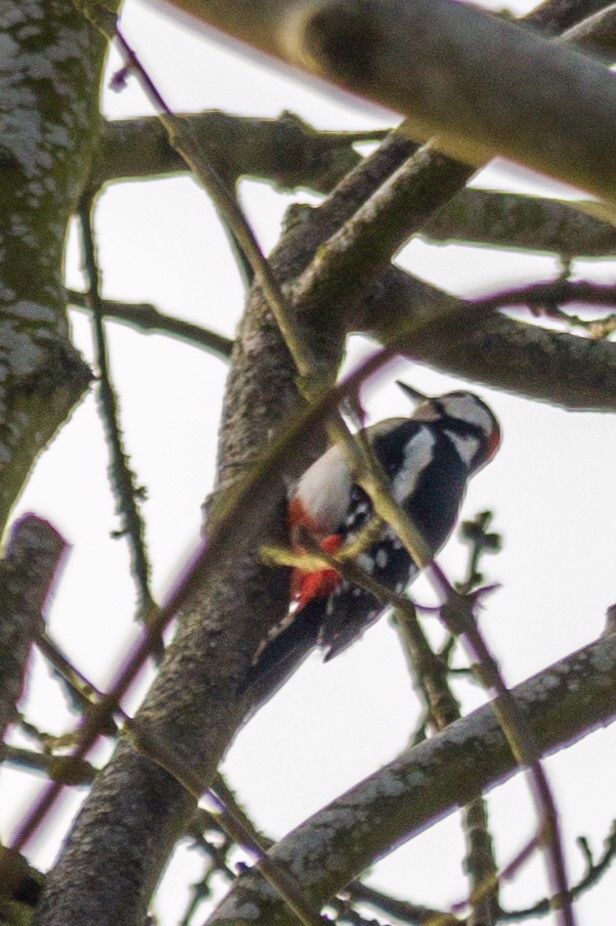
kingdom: Animalia
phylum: Chordata
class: Aves
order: Piciformes
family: Picidae
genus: Dendrocopos
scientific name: Dendrocopos major
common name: Great spotted woodpecker
